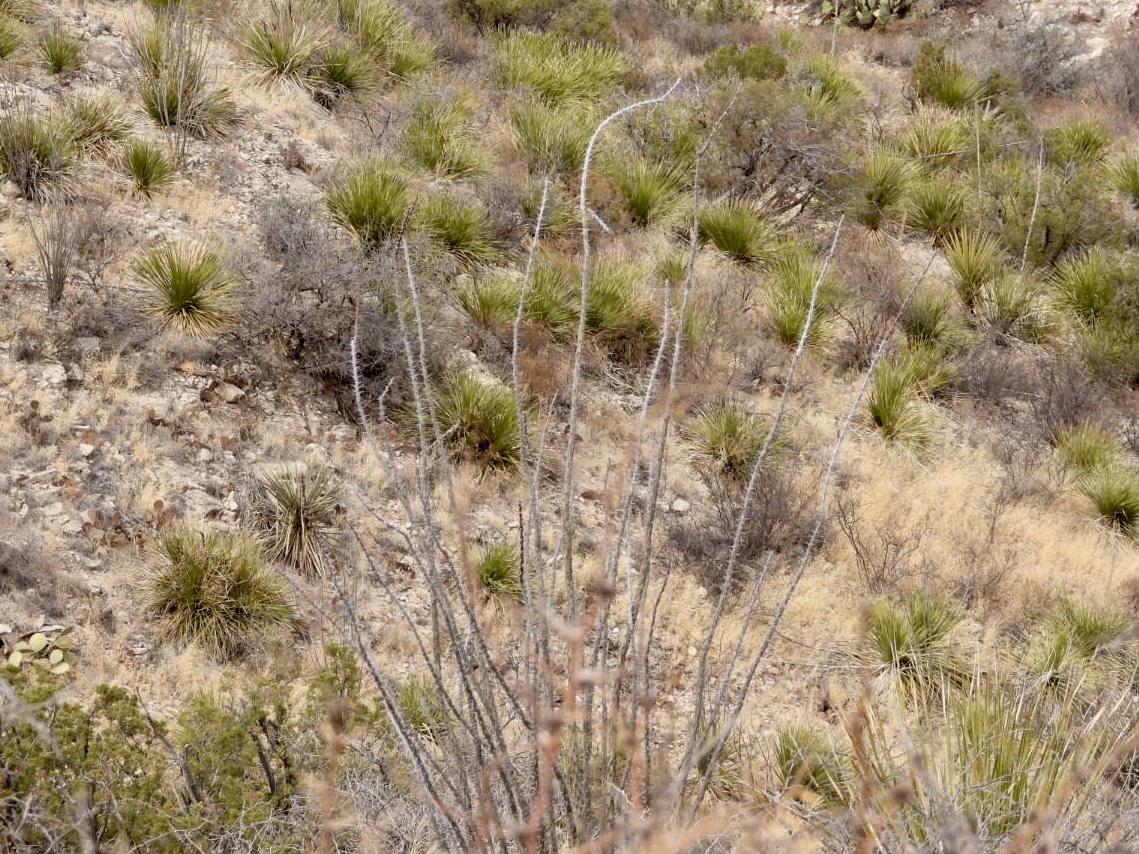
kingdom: Plantae
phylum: Tracheophyta
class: Magnoliopsida
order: Ericales
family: Fouquieriaceae
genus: Fouquieria
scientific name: Fouquieria splendens
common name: Vine-cactus
